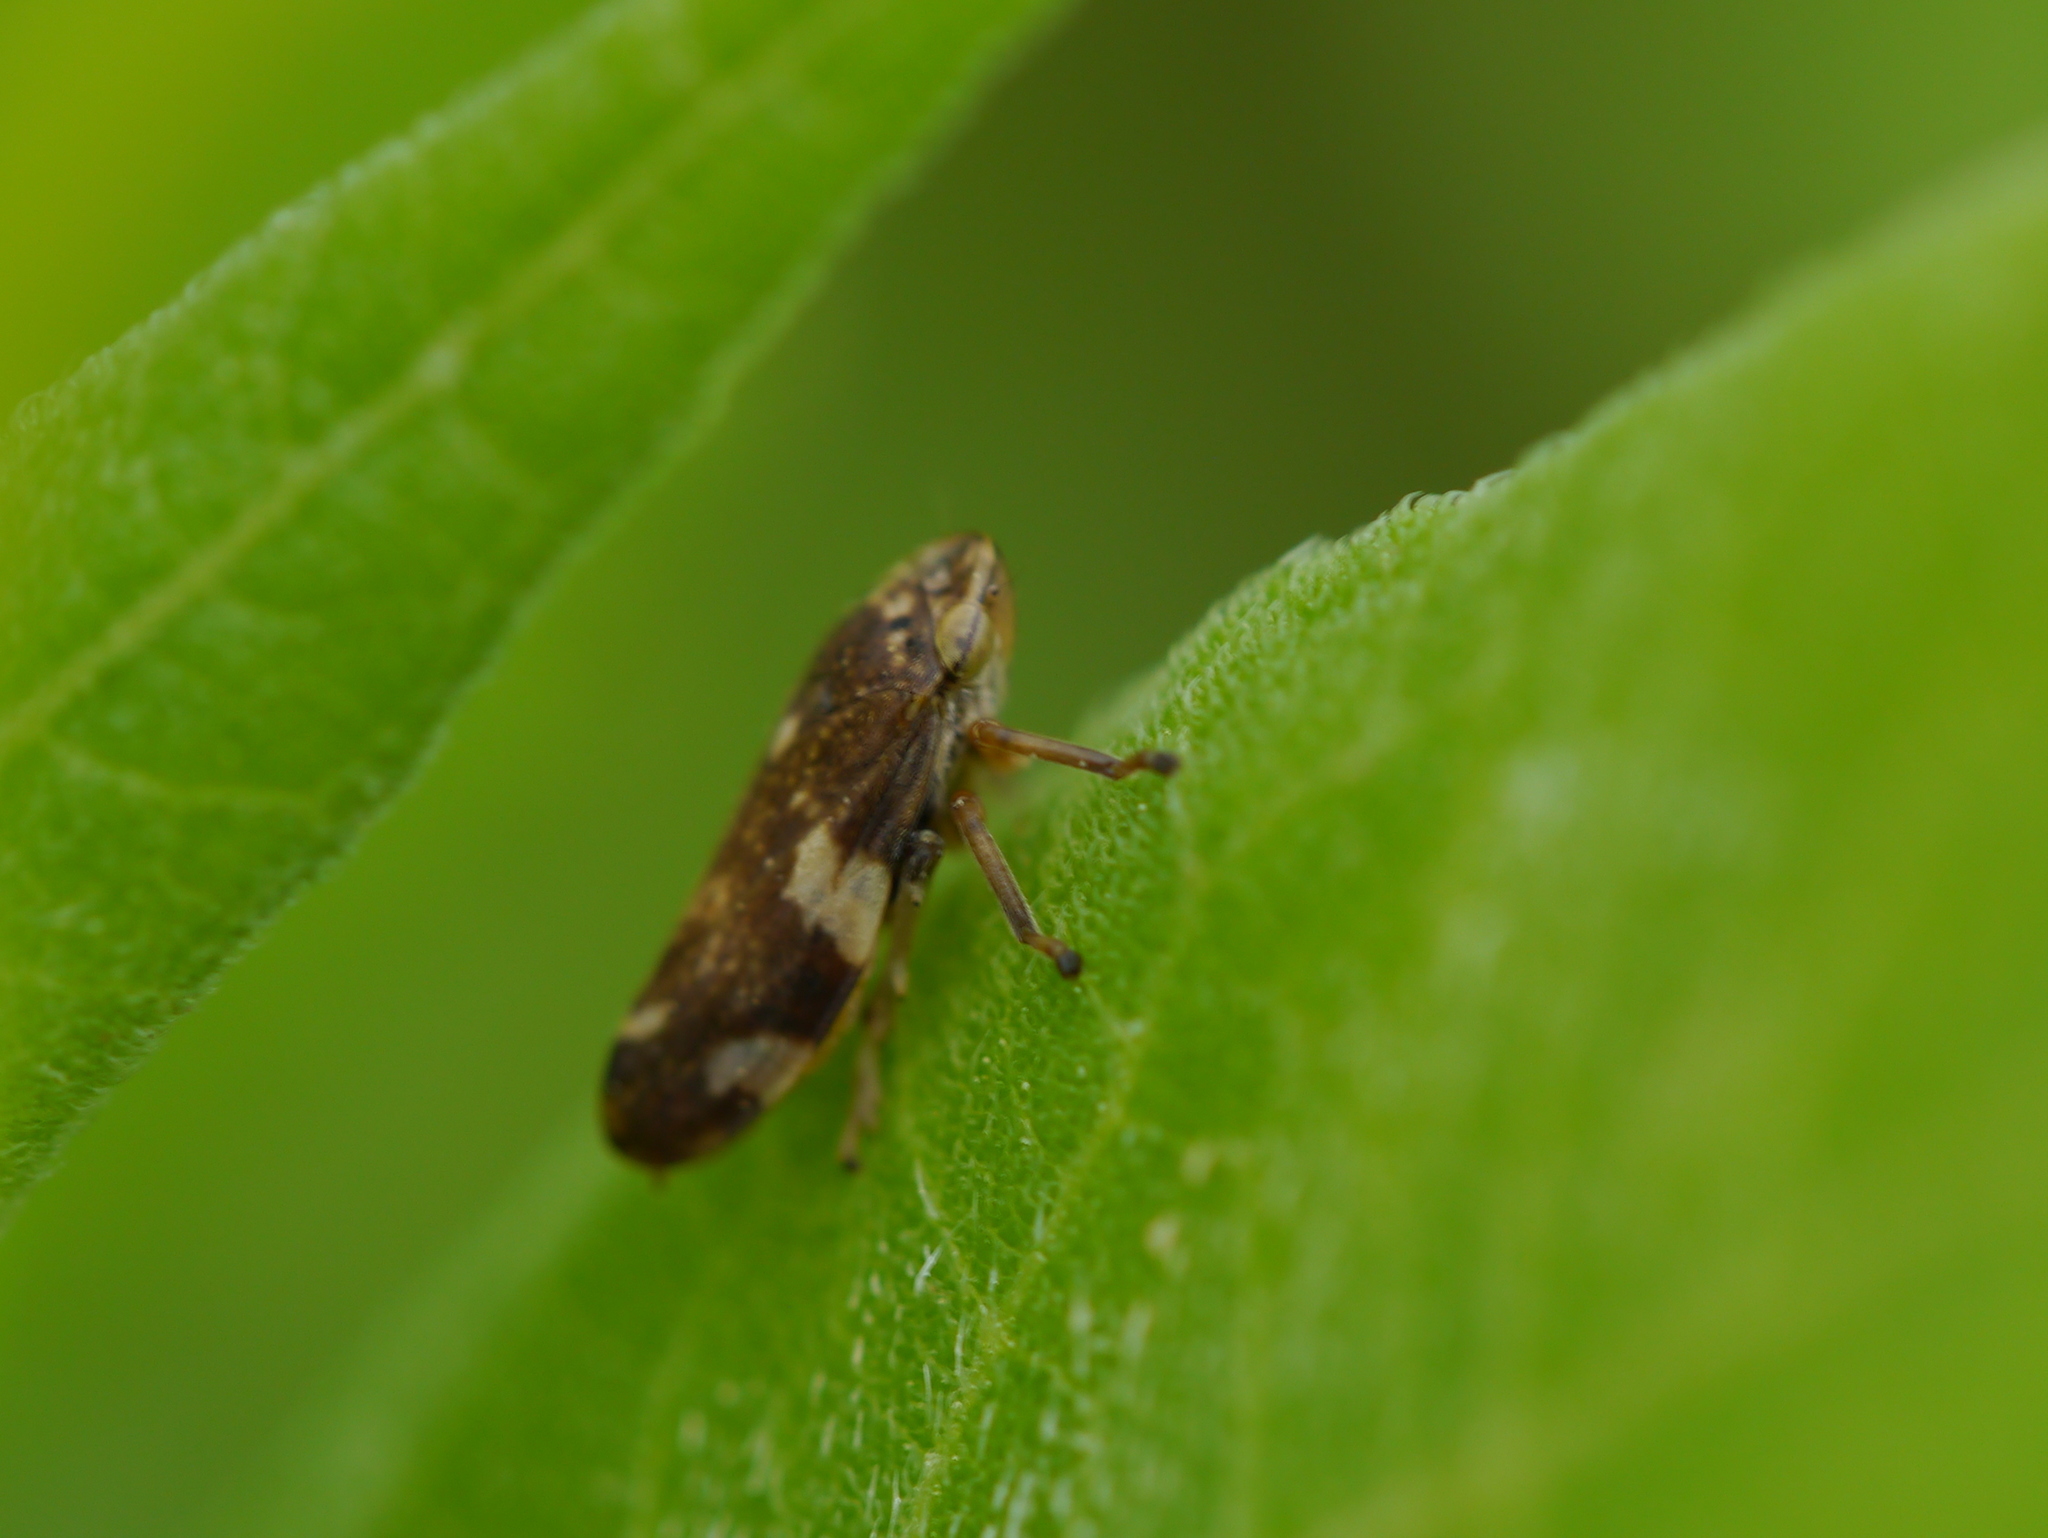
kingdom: Animalia
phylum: Arthropoda
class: Insecta
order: Hemiptera
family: Aphrophoridae
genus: Philaenus
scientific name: Philaenus spumarius
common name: Meadow spittlebug
